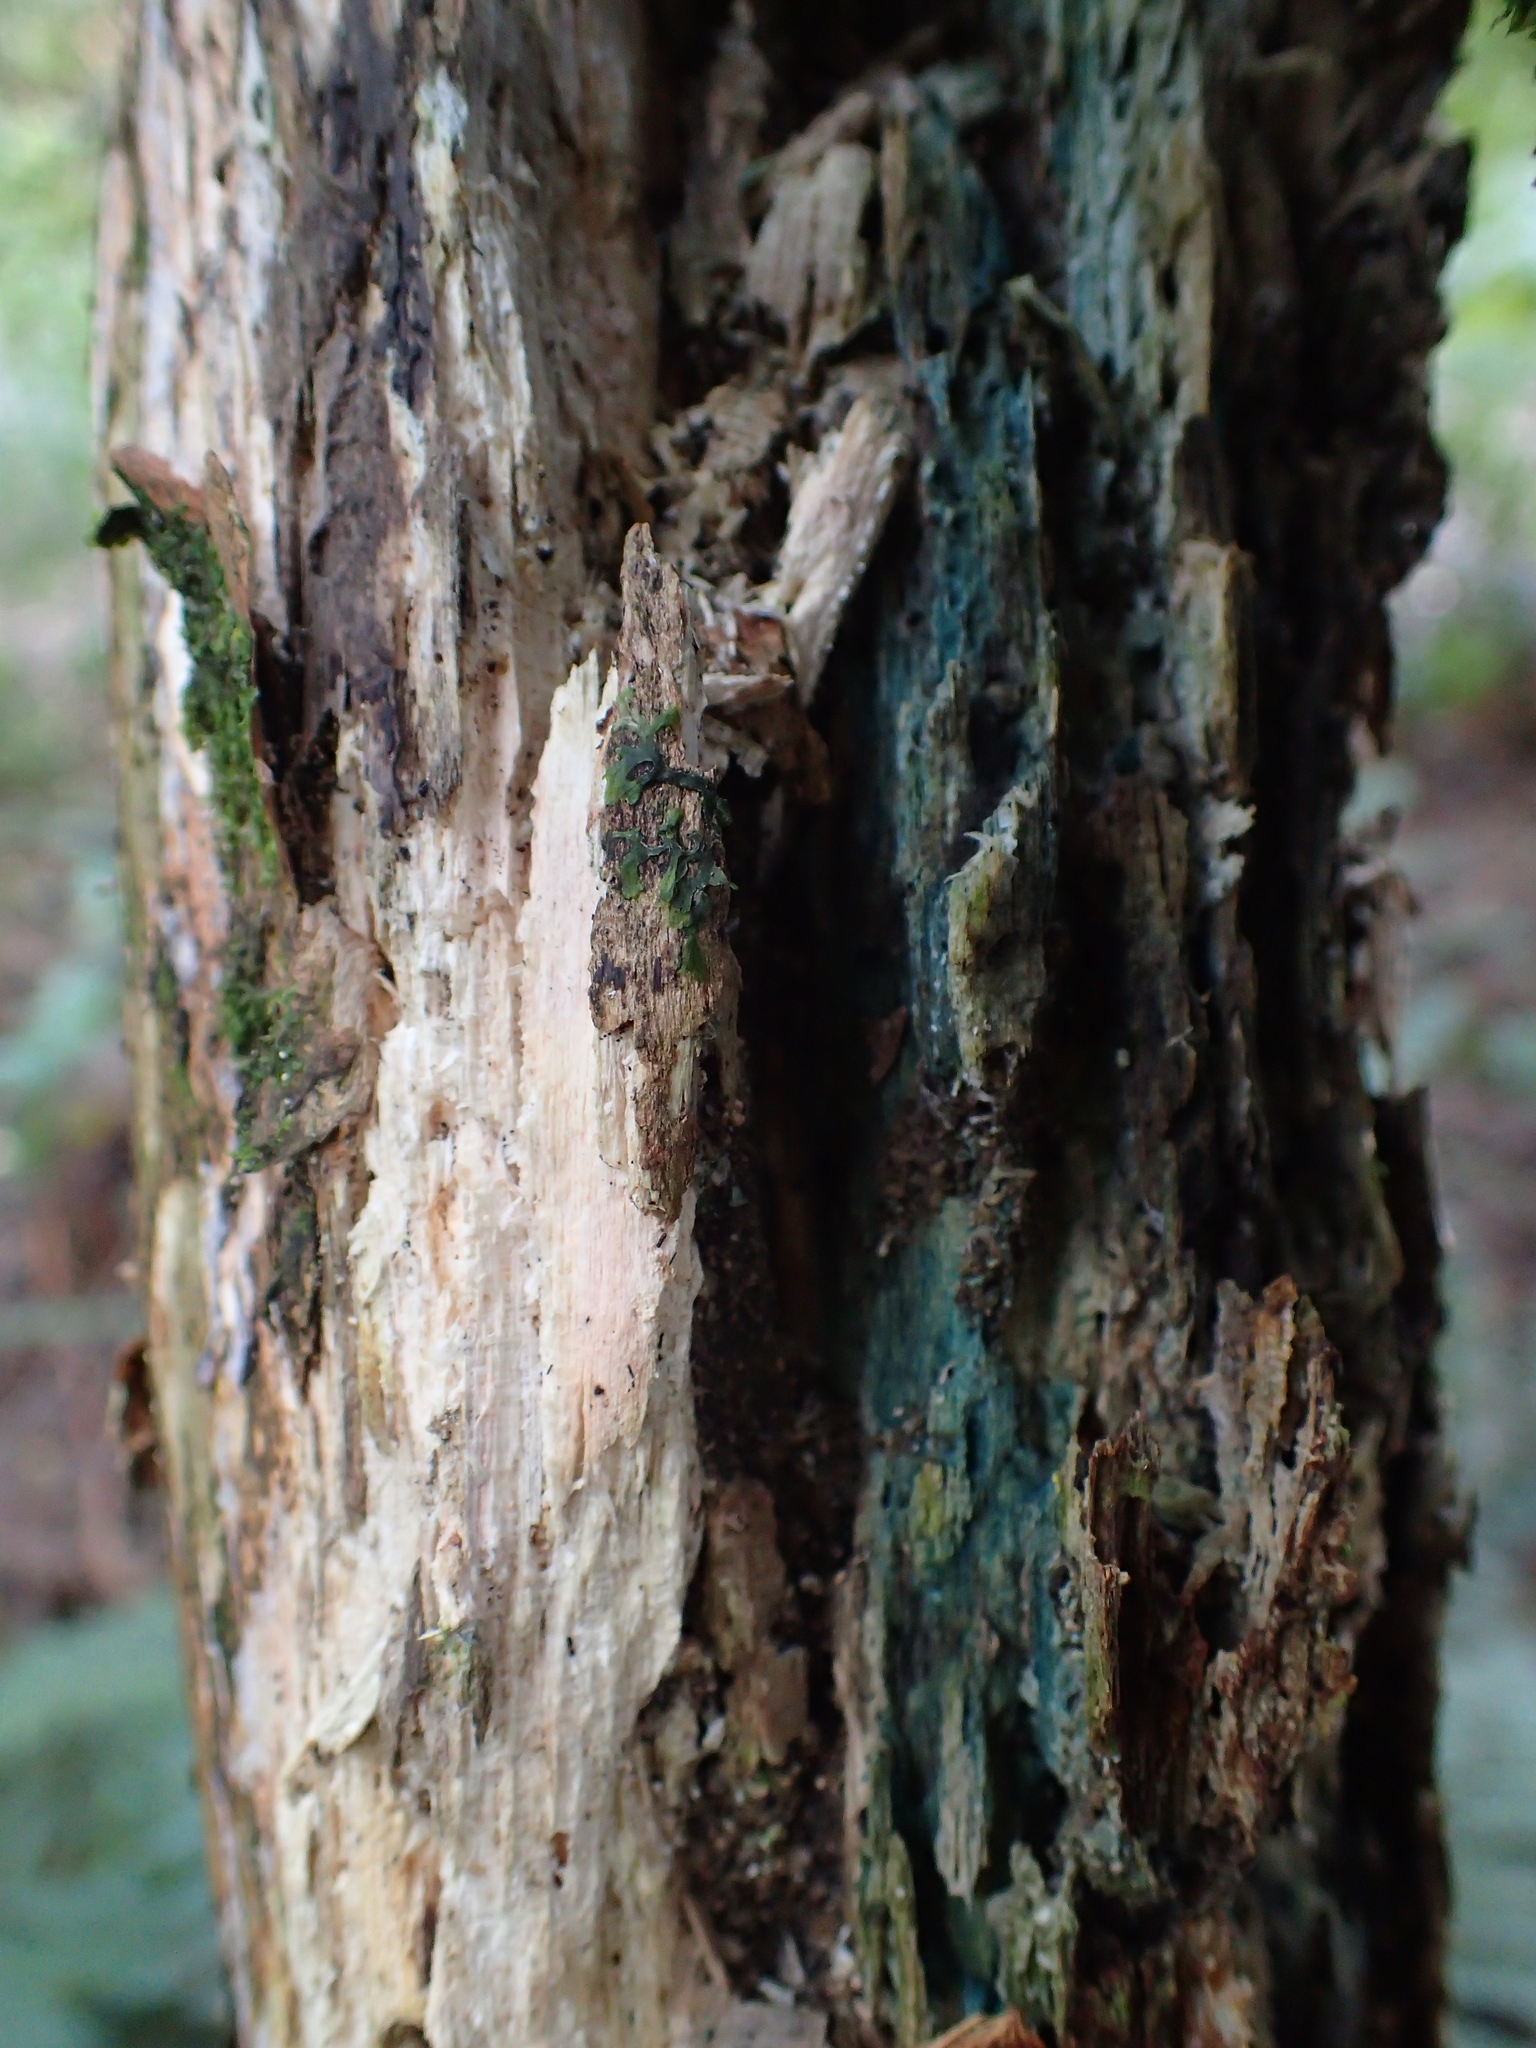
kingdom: Fungi
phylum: Ascomycota
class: Leotiomycetes
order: Helotiales
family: Chlorociboriaceae
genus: Chlorociboria
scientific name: Chlorociboria
